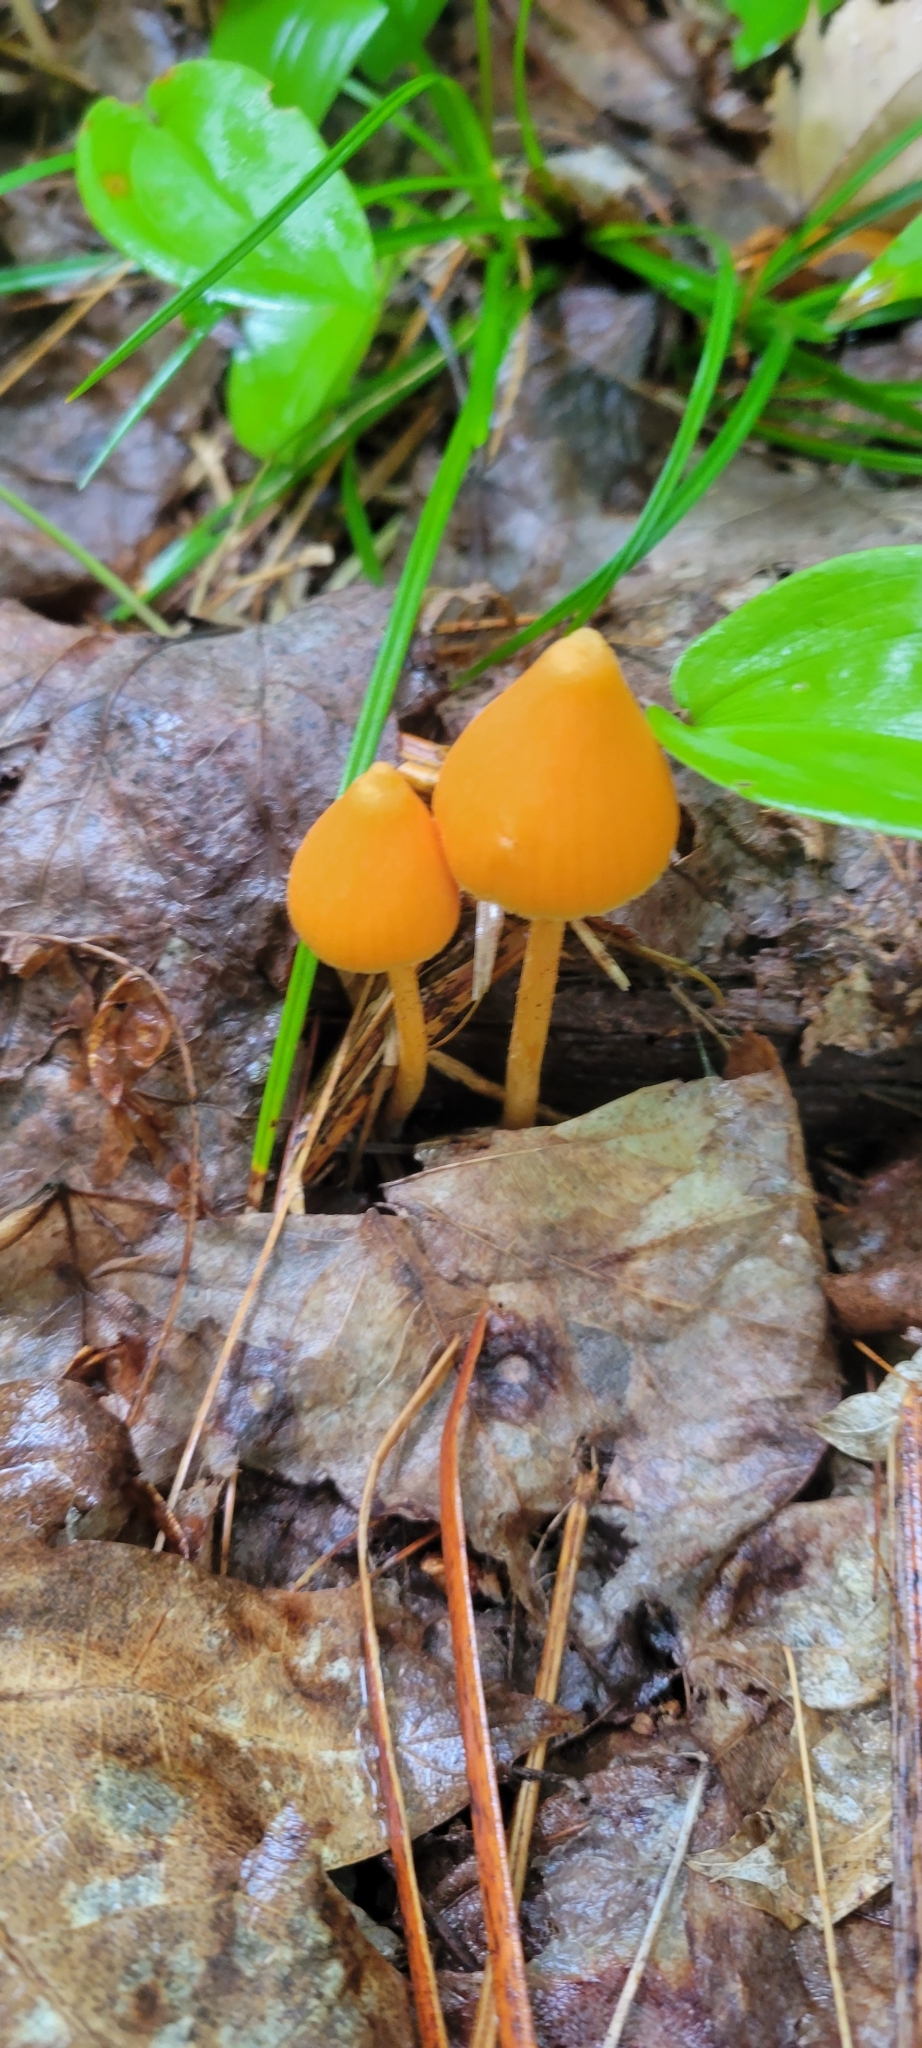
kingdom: Fungi
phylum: Basidiomycota
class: Agaricomycetes
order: Agaricales
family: Entolomataceae
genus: Entoloma
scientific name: Entoloma quadratum
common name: Salmon pinkgill
